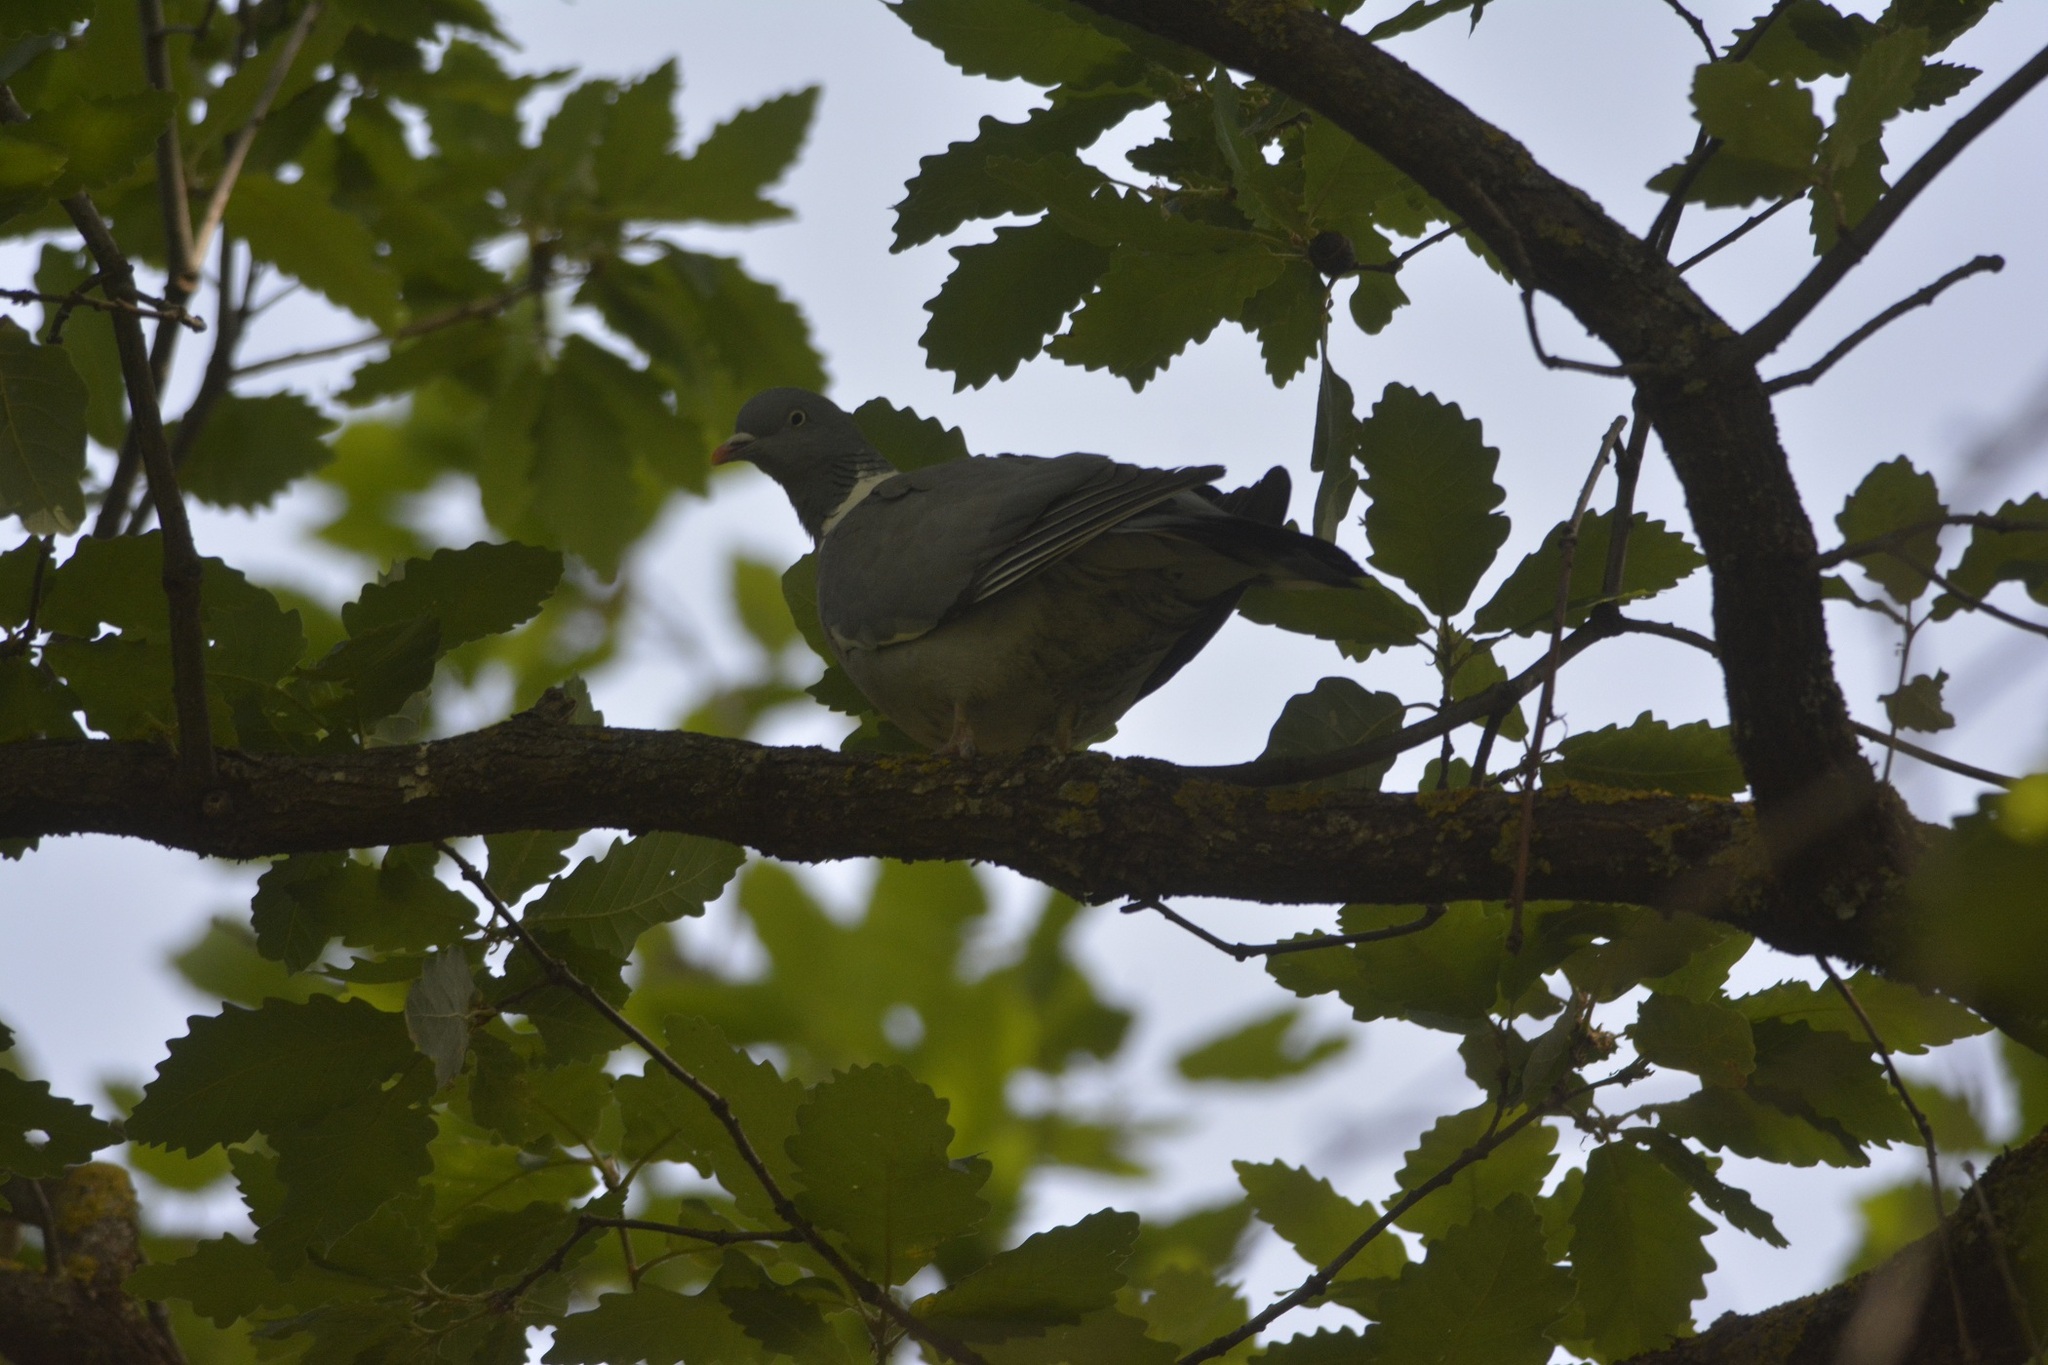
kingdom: Animalia
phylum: Chordata
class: Aves
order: Columbiformes
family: Columbidae
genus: Columba
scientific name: Columba palumbus
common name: Common wood pigeon
